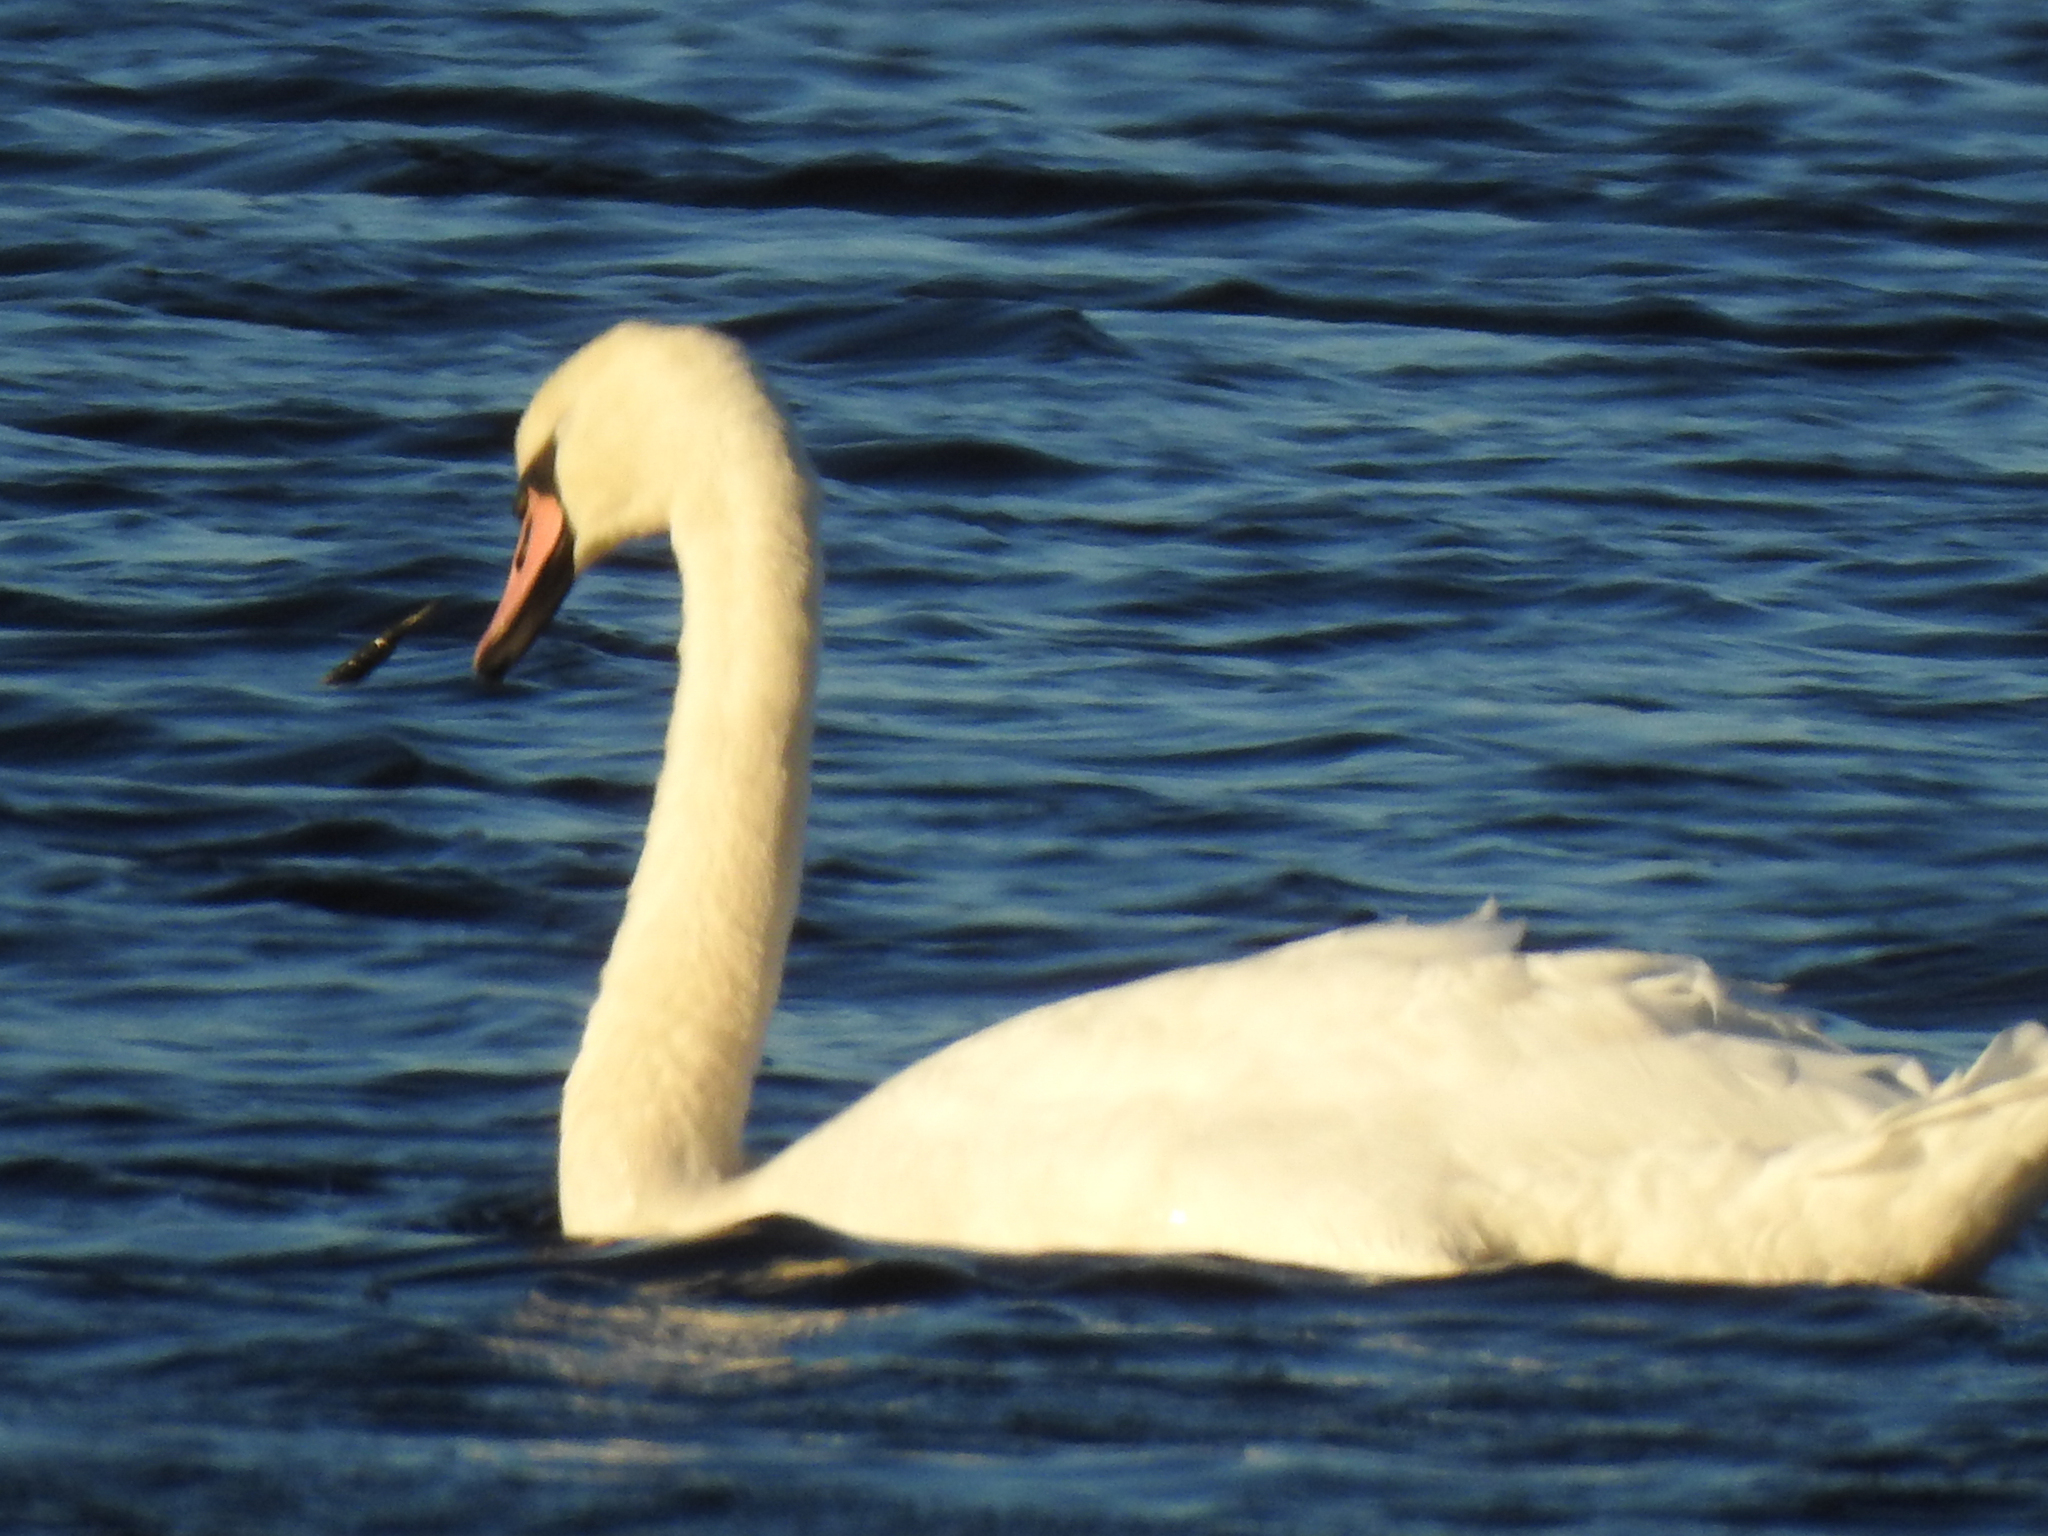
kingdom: Animalia
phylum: Chordata
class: Aves
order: Anseriformes
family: Anatidae
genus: Cygnus
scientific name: Cygnus olor
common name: Mute swan
